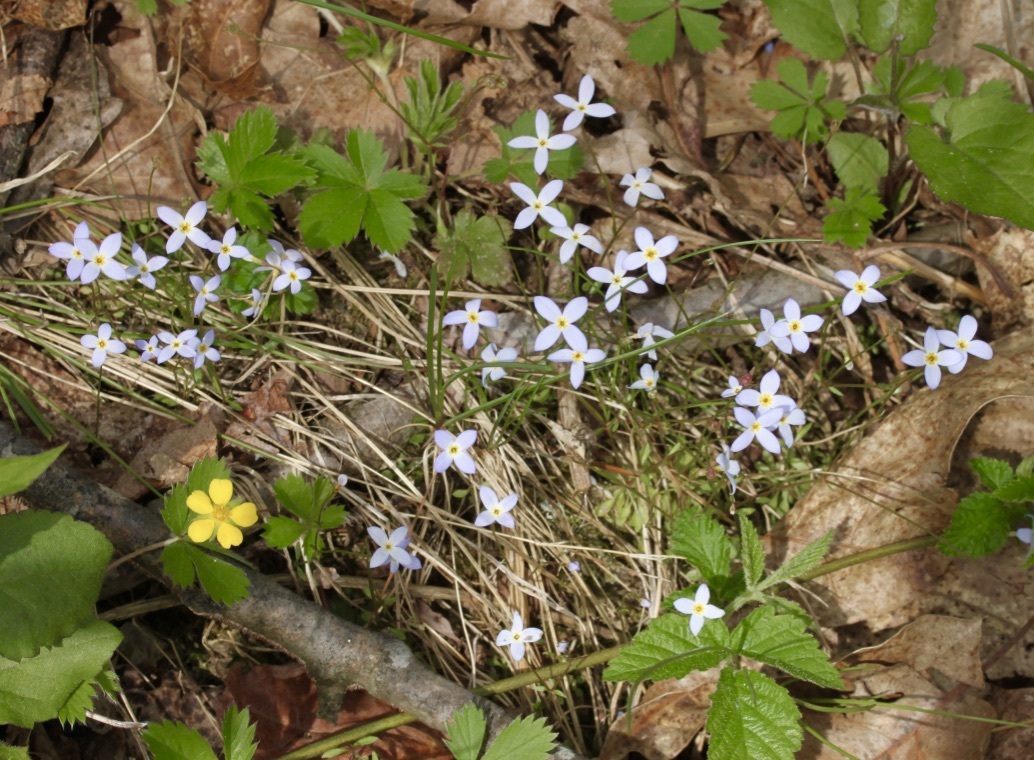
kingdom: Plantae
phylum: Tracheophyta
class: Magnoliopsida
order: Gentianales
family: Rubiaceae
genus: Houstonia
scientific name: Houstonia caerulea
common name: Bluets
